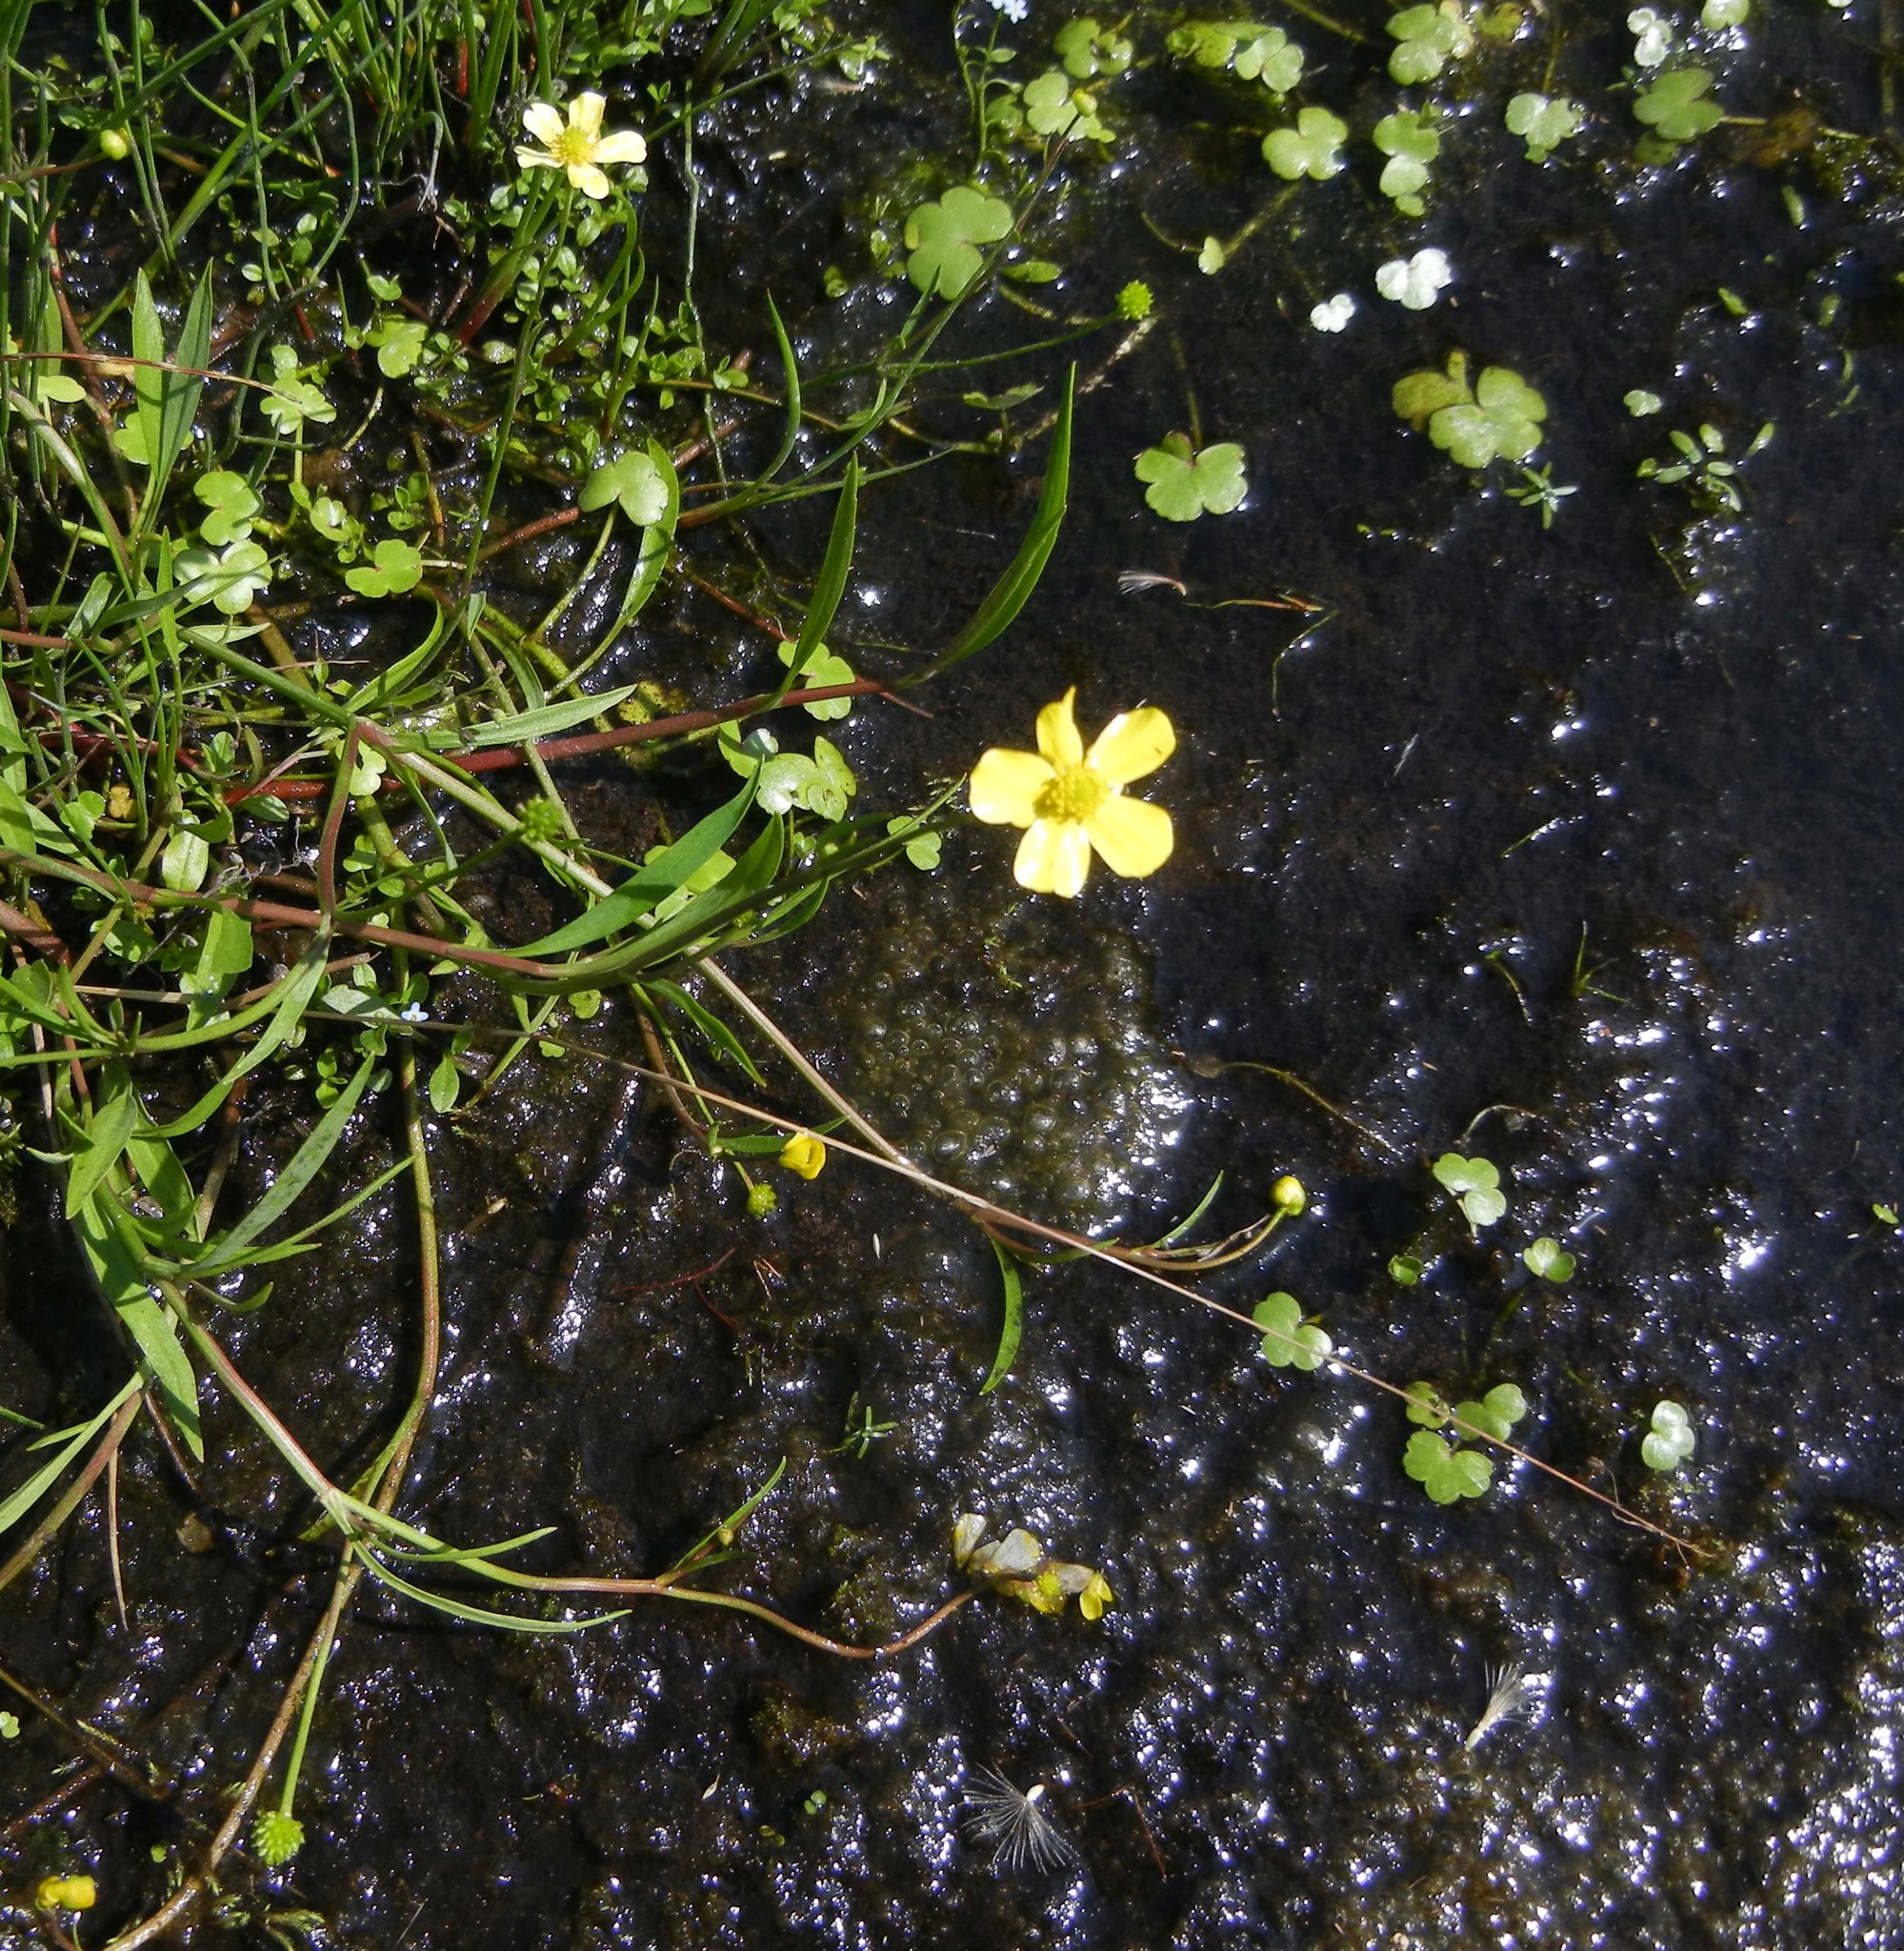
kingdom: Plantae
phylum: Tracheophyta
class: Magnoliopsida
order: Ranunculales
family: Ranunculaceae
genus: Ranunculus
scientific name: Ranunculus flammula
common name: Lesser spearwort
